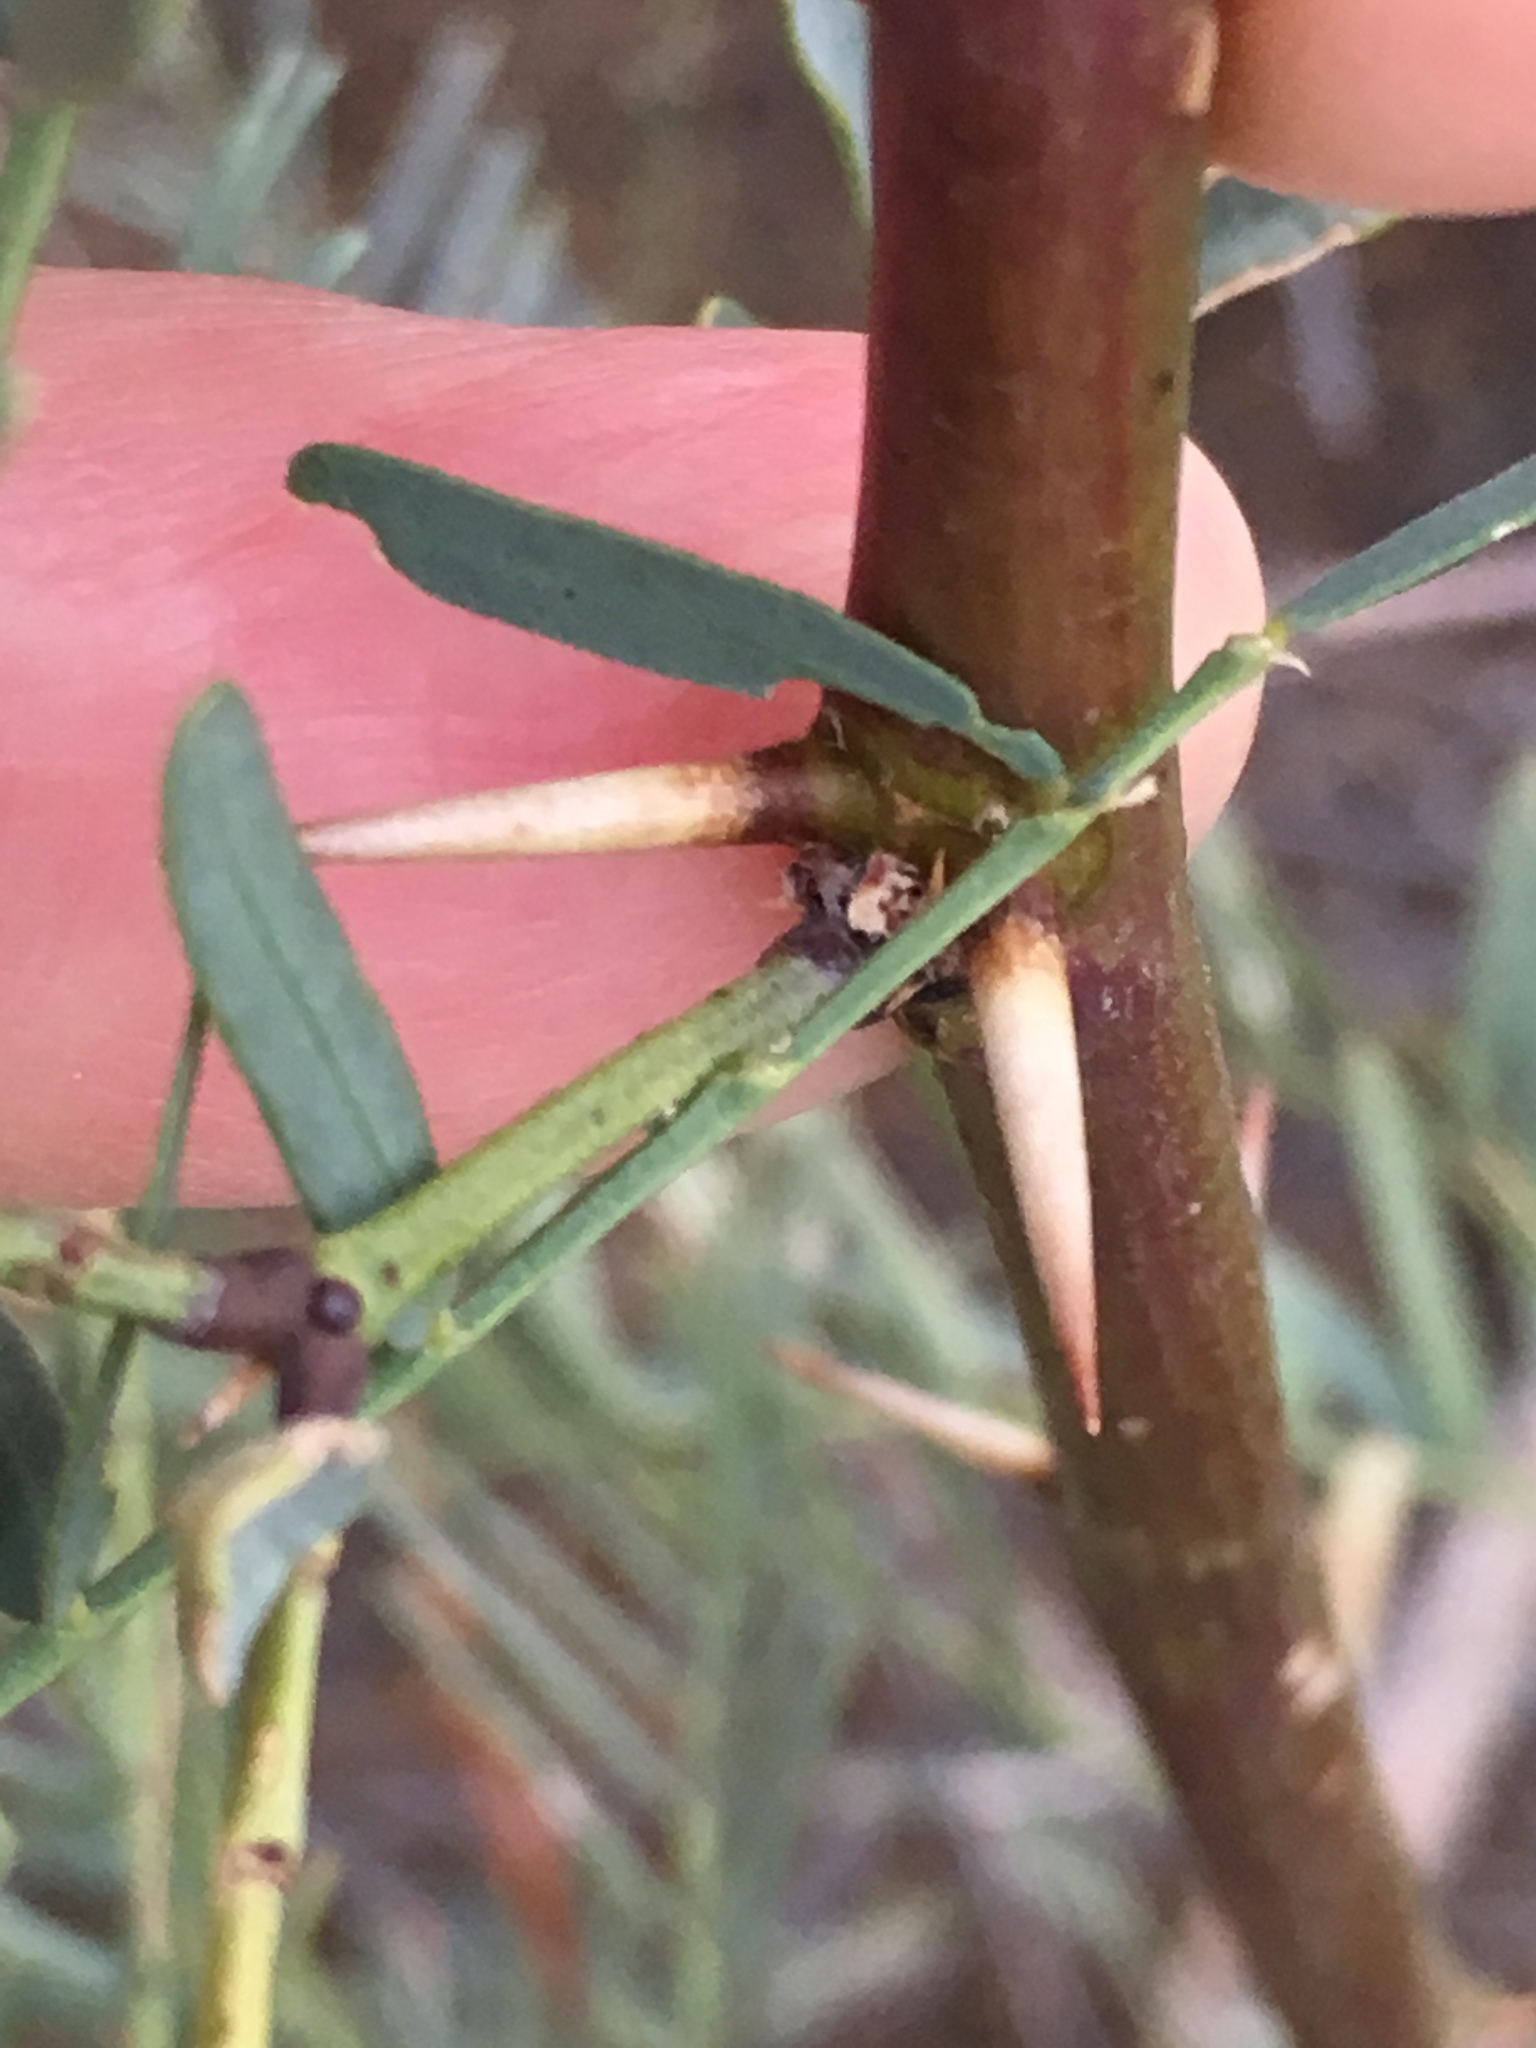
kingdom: Plantae
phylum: Tracheophyta
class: Magnoliopsida
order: Fabales
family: Fabaceae
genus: Prosopis
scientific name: Prosopis pubescens
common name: Screw-bean
